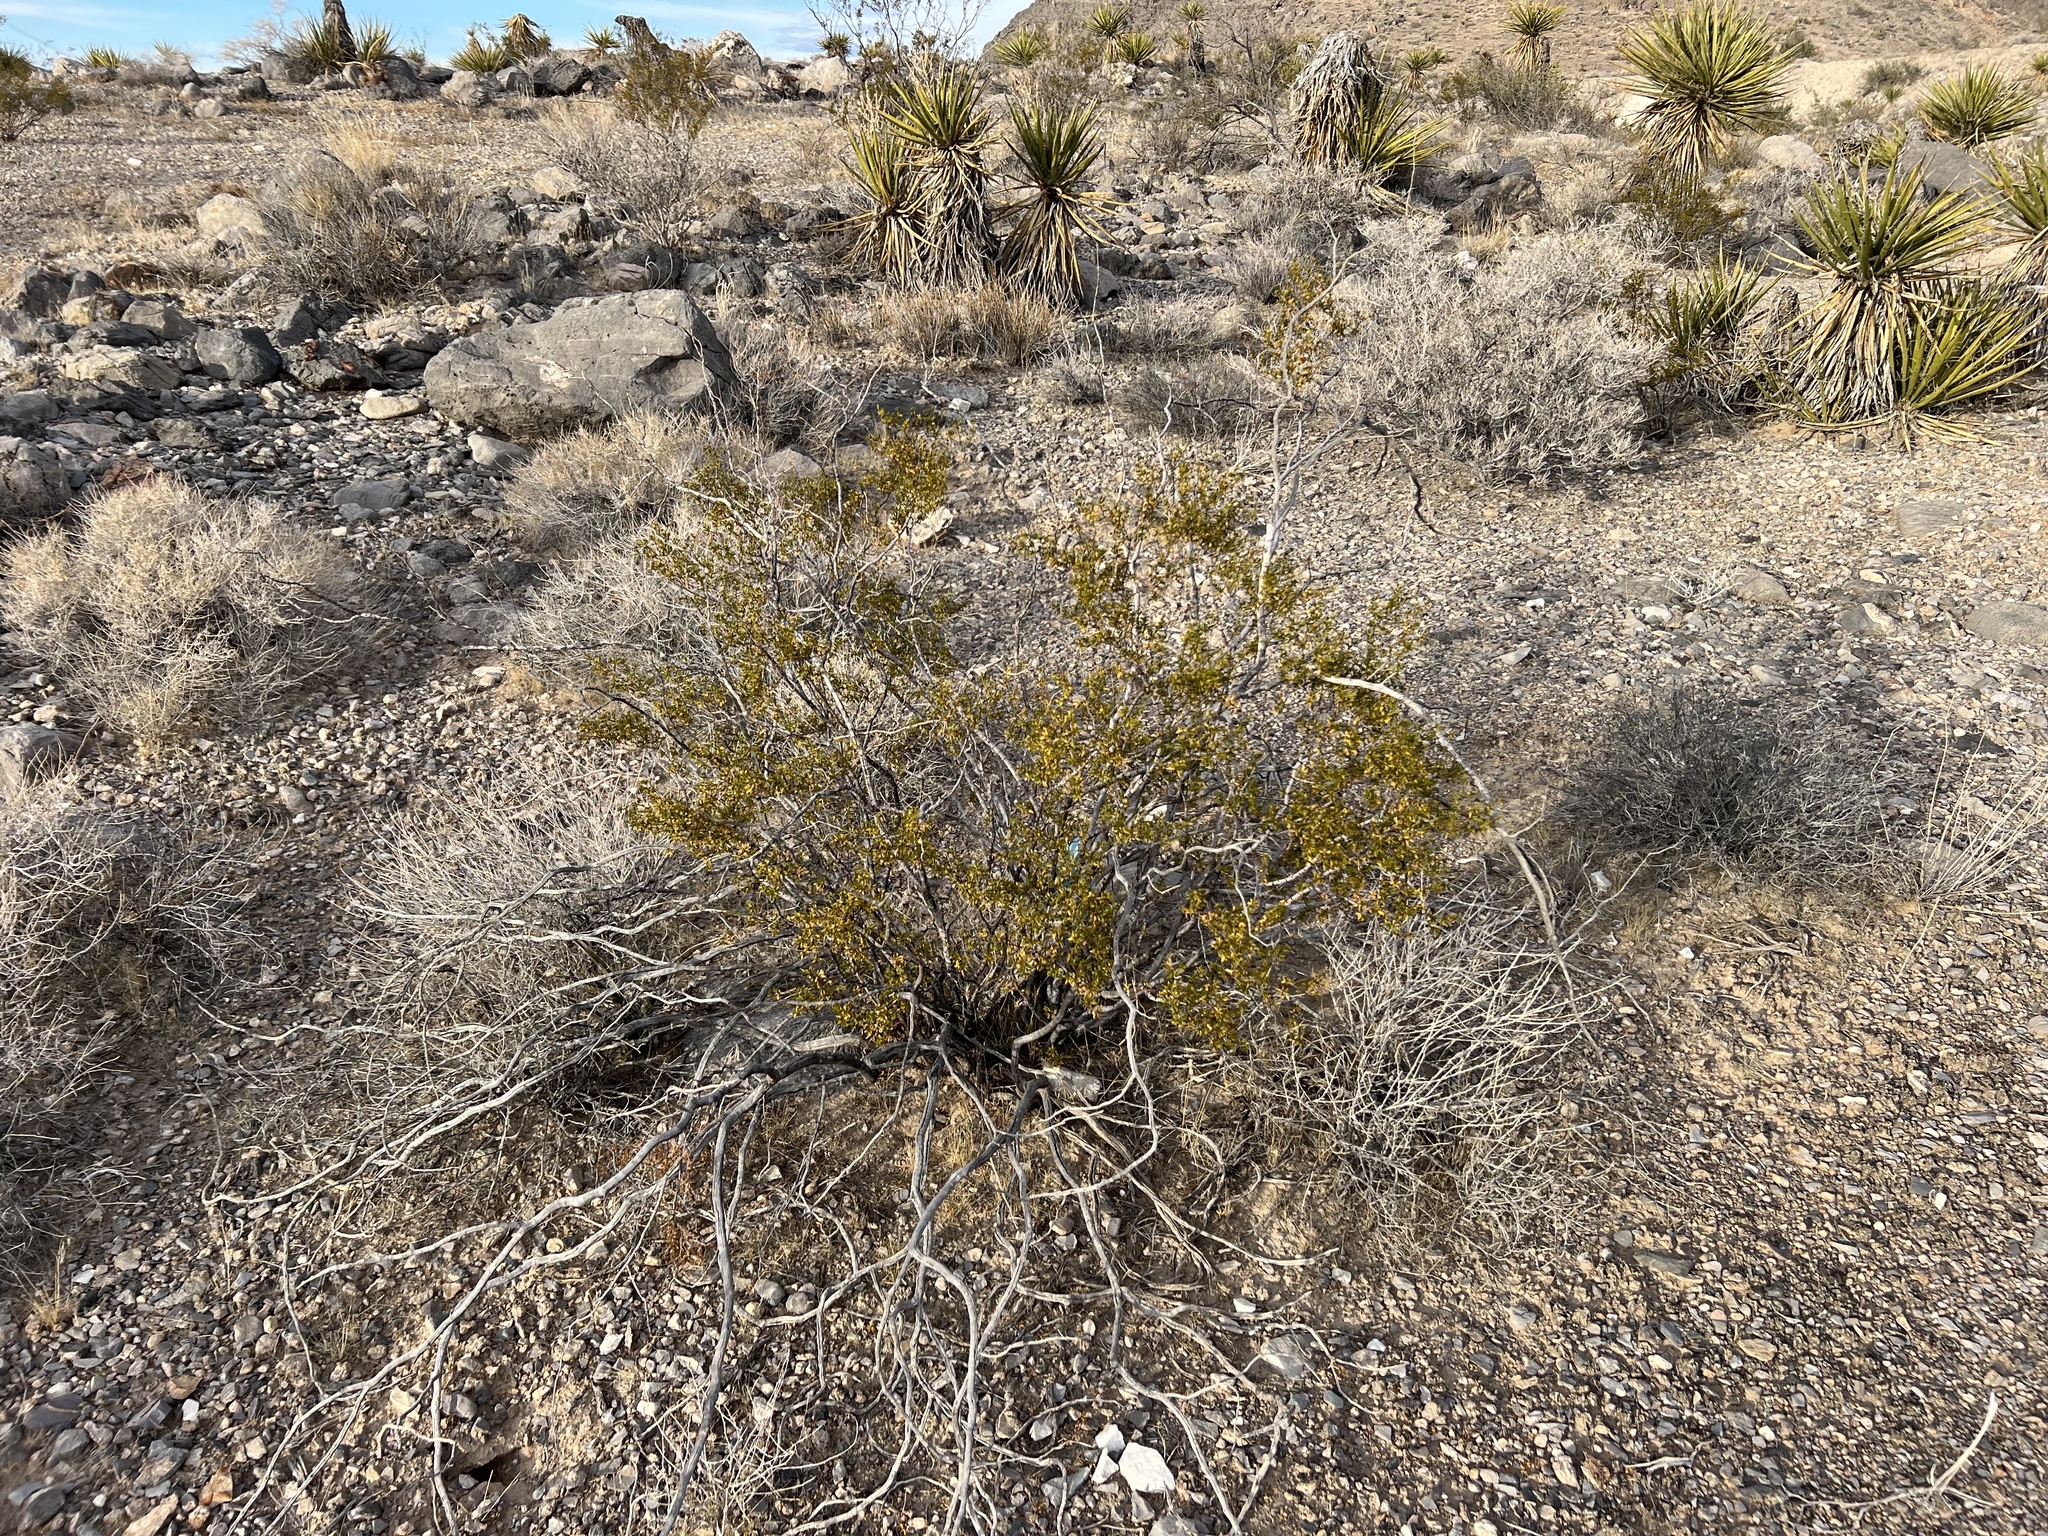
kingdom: Plantae
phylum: Tracheophyta
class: Magnoliopsida
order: Zygophyllales
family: Zygophyllaceae
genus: Larrea
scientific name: Larrea tridentata
